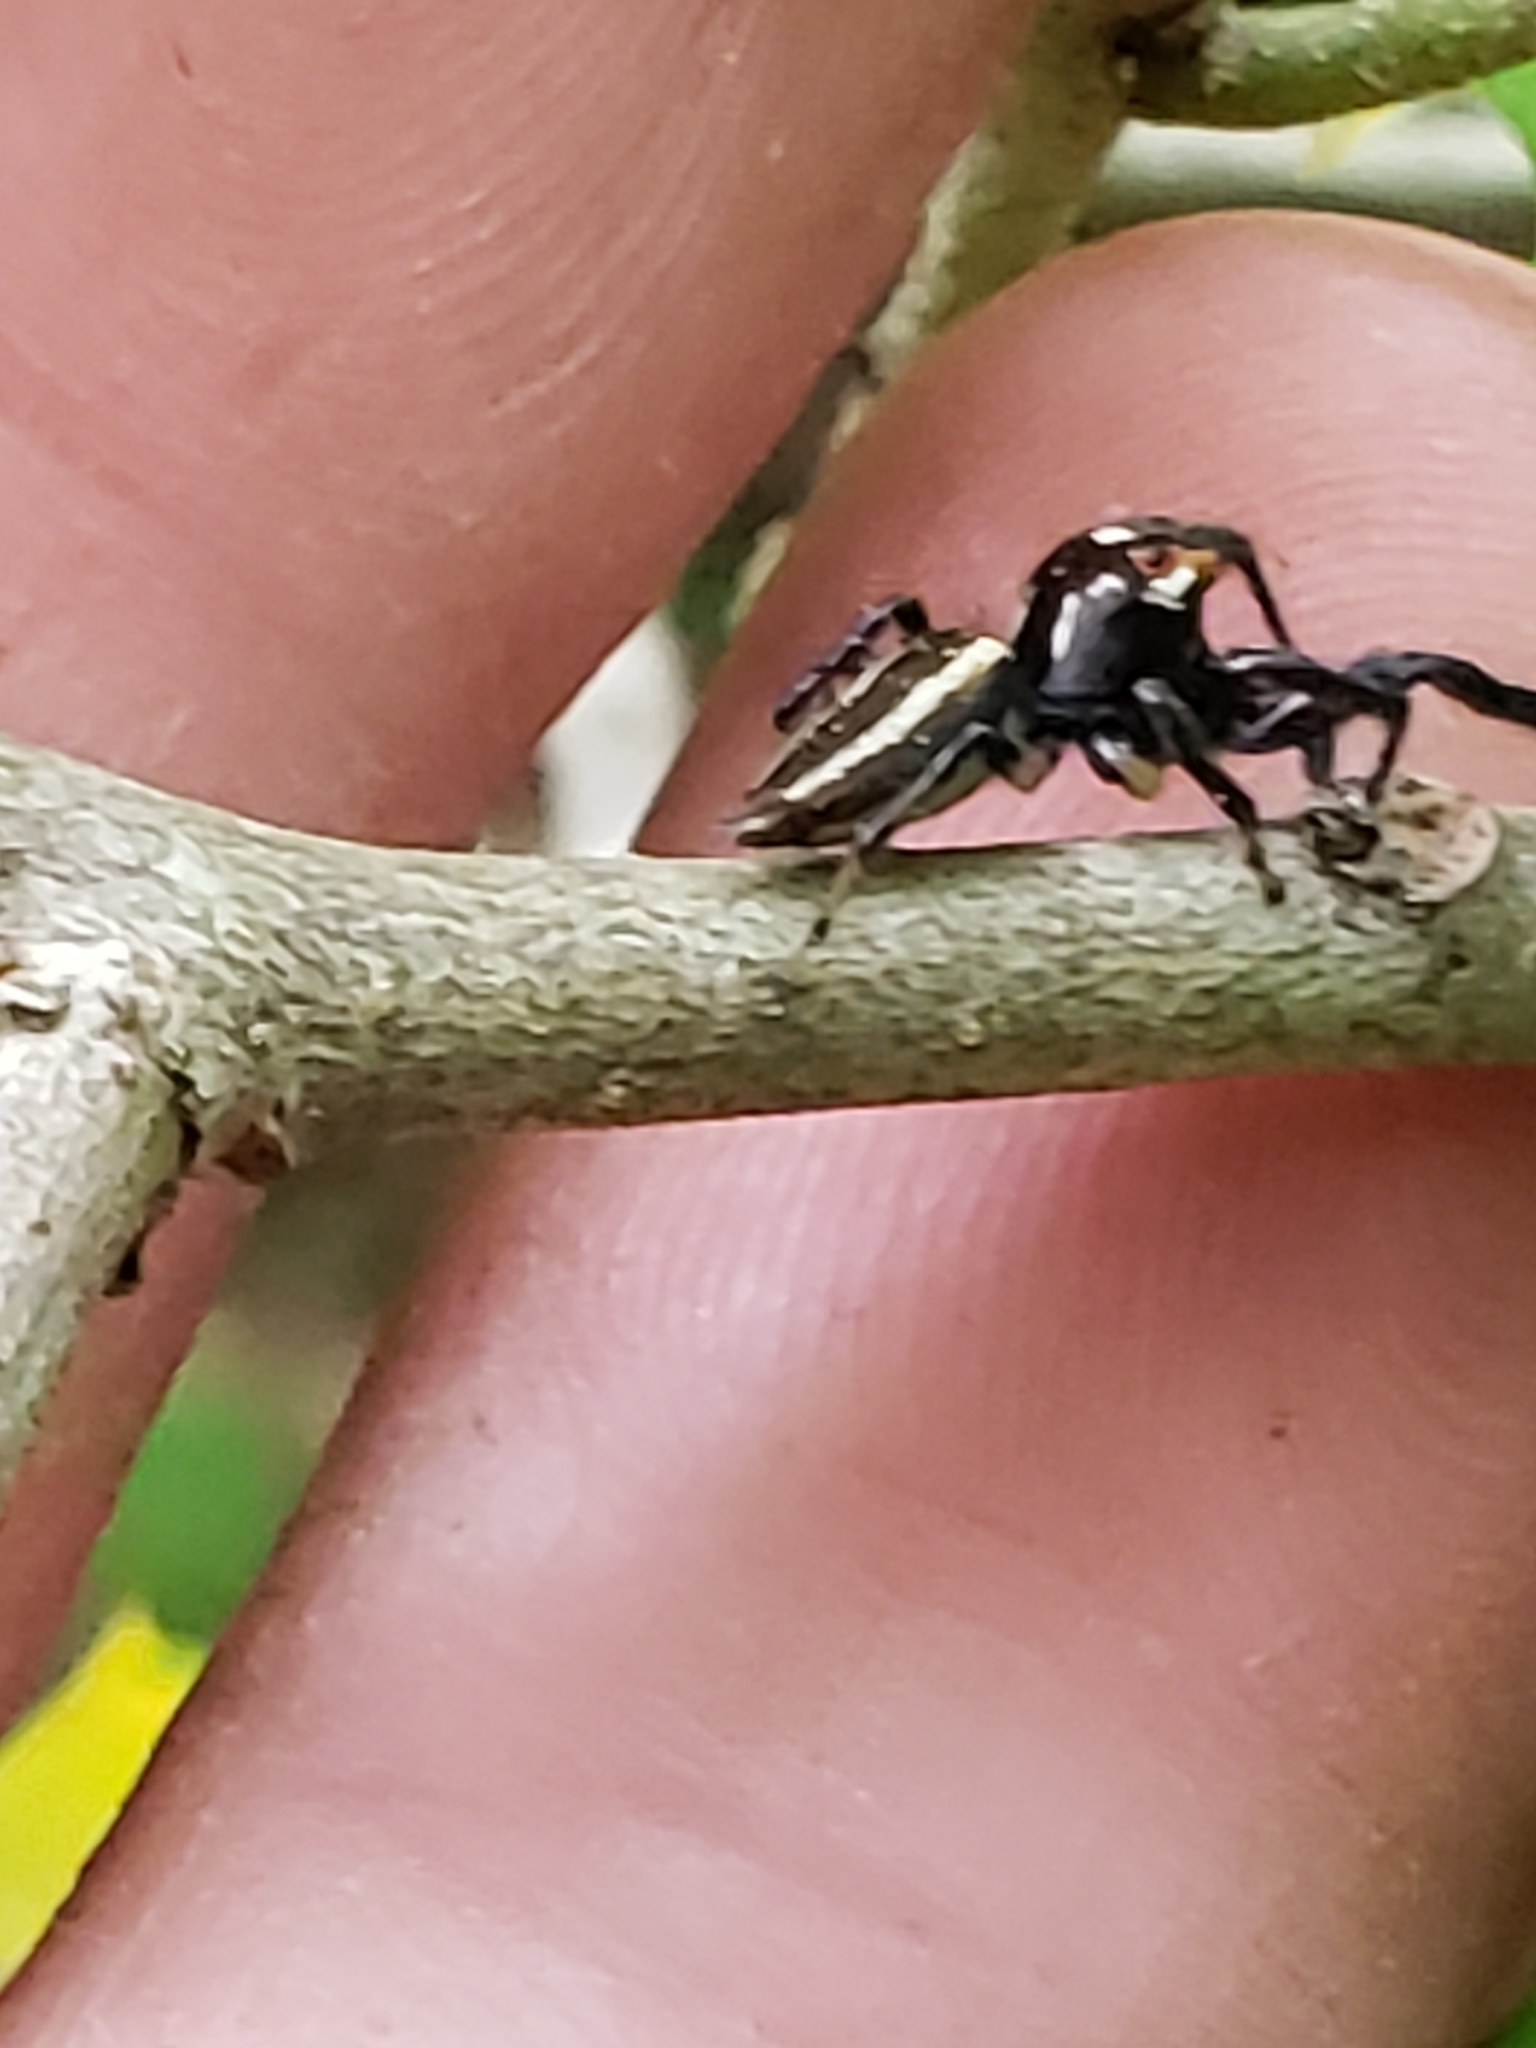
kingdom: Animalia
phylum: Arthropoda
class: Arachnida
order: Araneae
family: Salticidae
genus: Colonus
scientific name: Colonus sylvanus
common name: Jumping spiders
